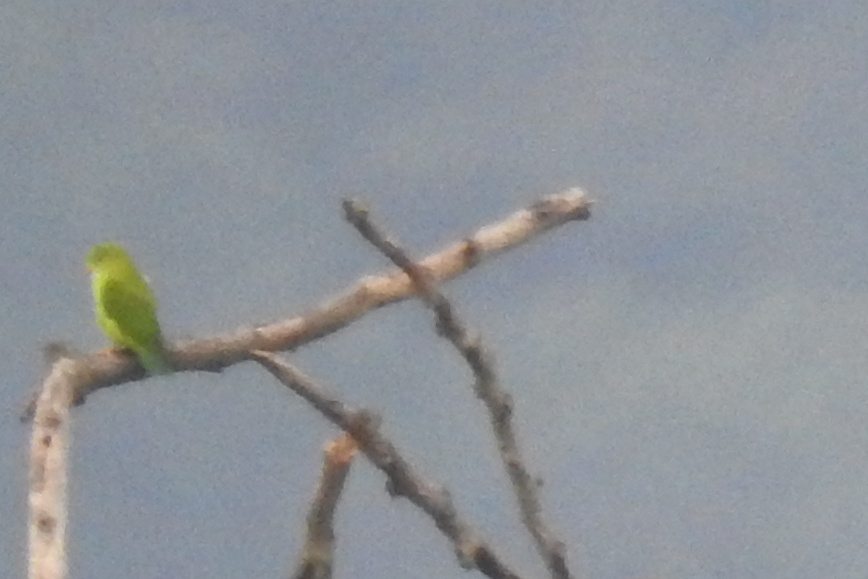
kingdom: Animalia
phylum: Chordata
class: Aves
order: Psittaciformes
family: Psittacidae
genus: Loriculus
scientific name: Loriculus vernalis
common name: Vernal hanging parrot
